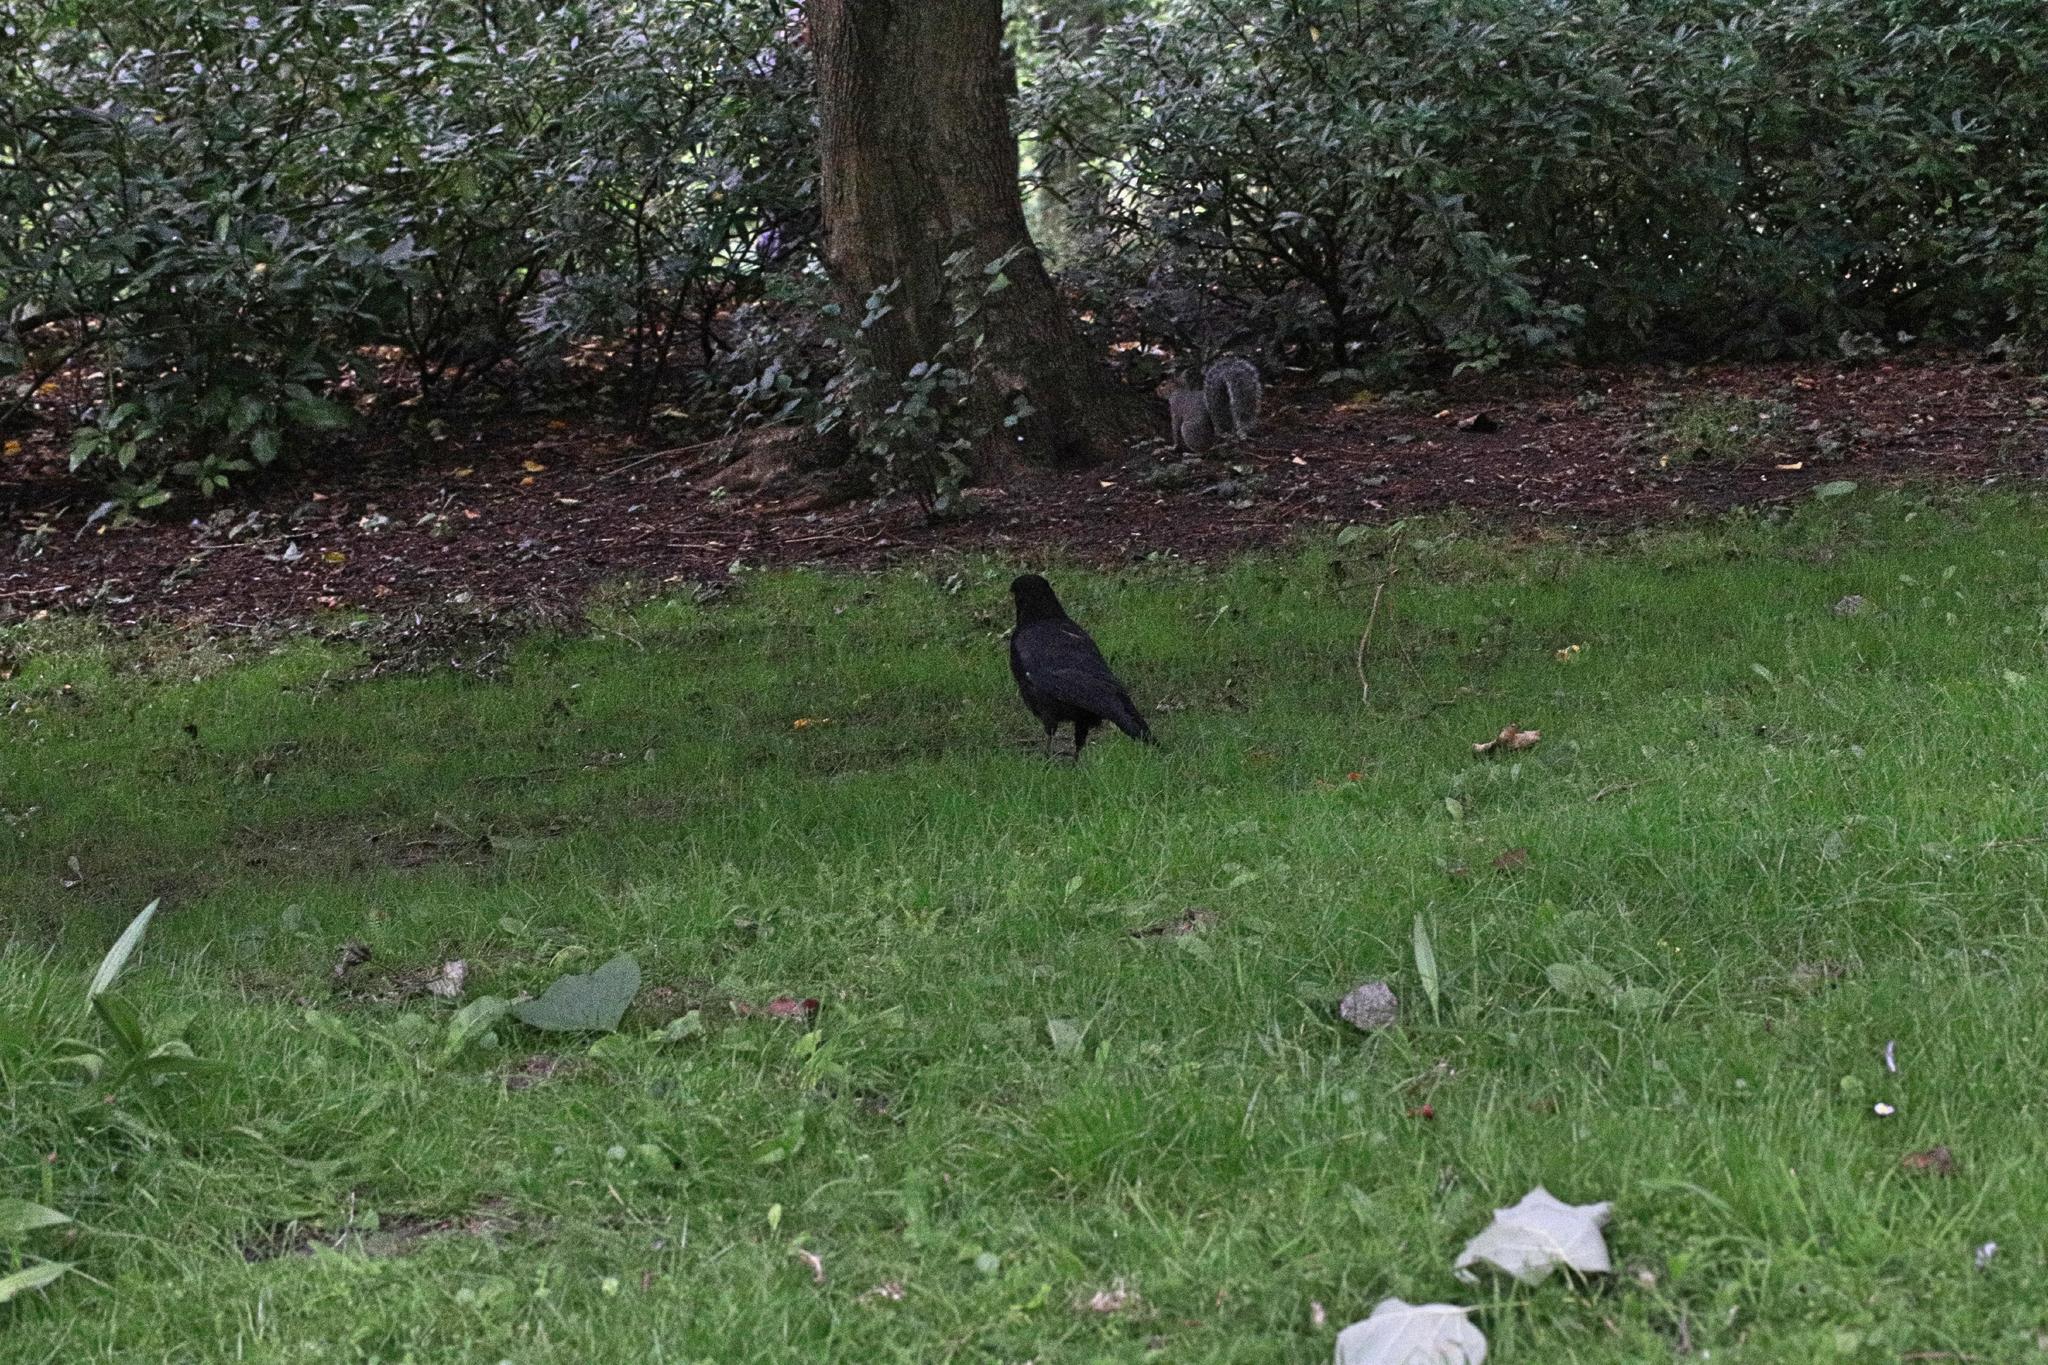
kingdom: Animalia
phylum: Chordata
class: Aves
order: Passeriformes
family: Corvidae
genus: Corvus
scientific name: Corvus corone
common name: Carrion crow
